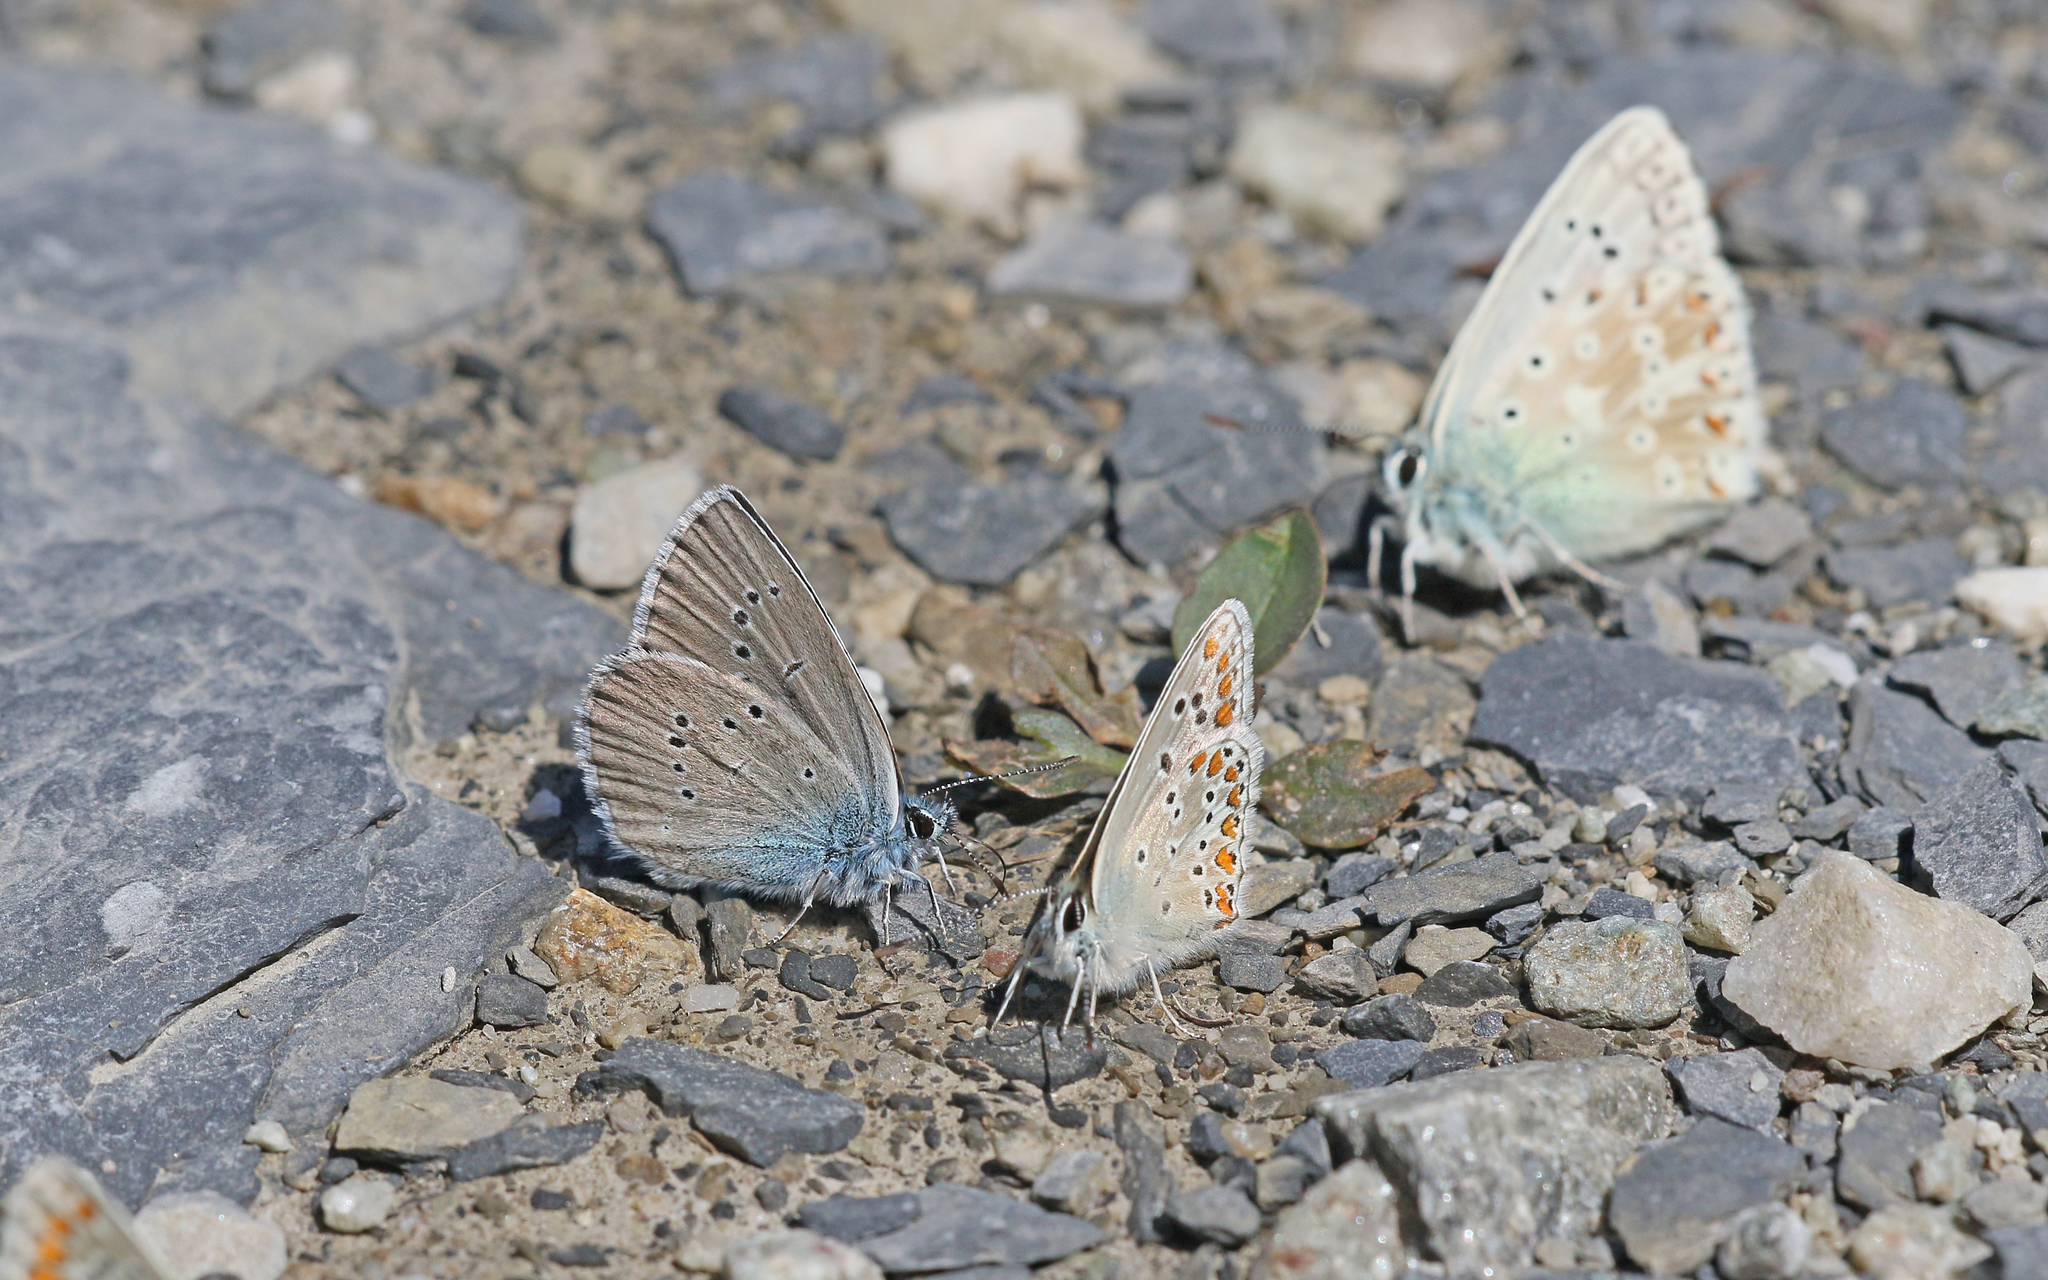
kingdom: Animalia
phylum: Arthropoda
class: Insecta
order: Lepidoptera
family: Lycaenidae
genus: Cyaniris
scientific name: Cyaniris semiargus
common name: Mazarine blue
